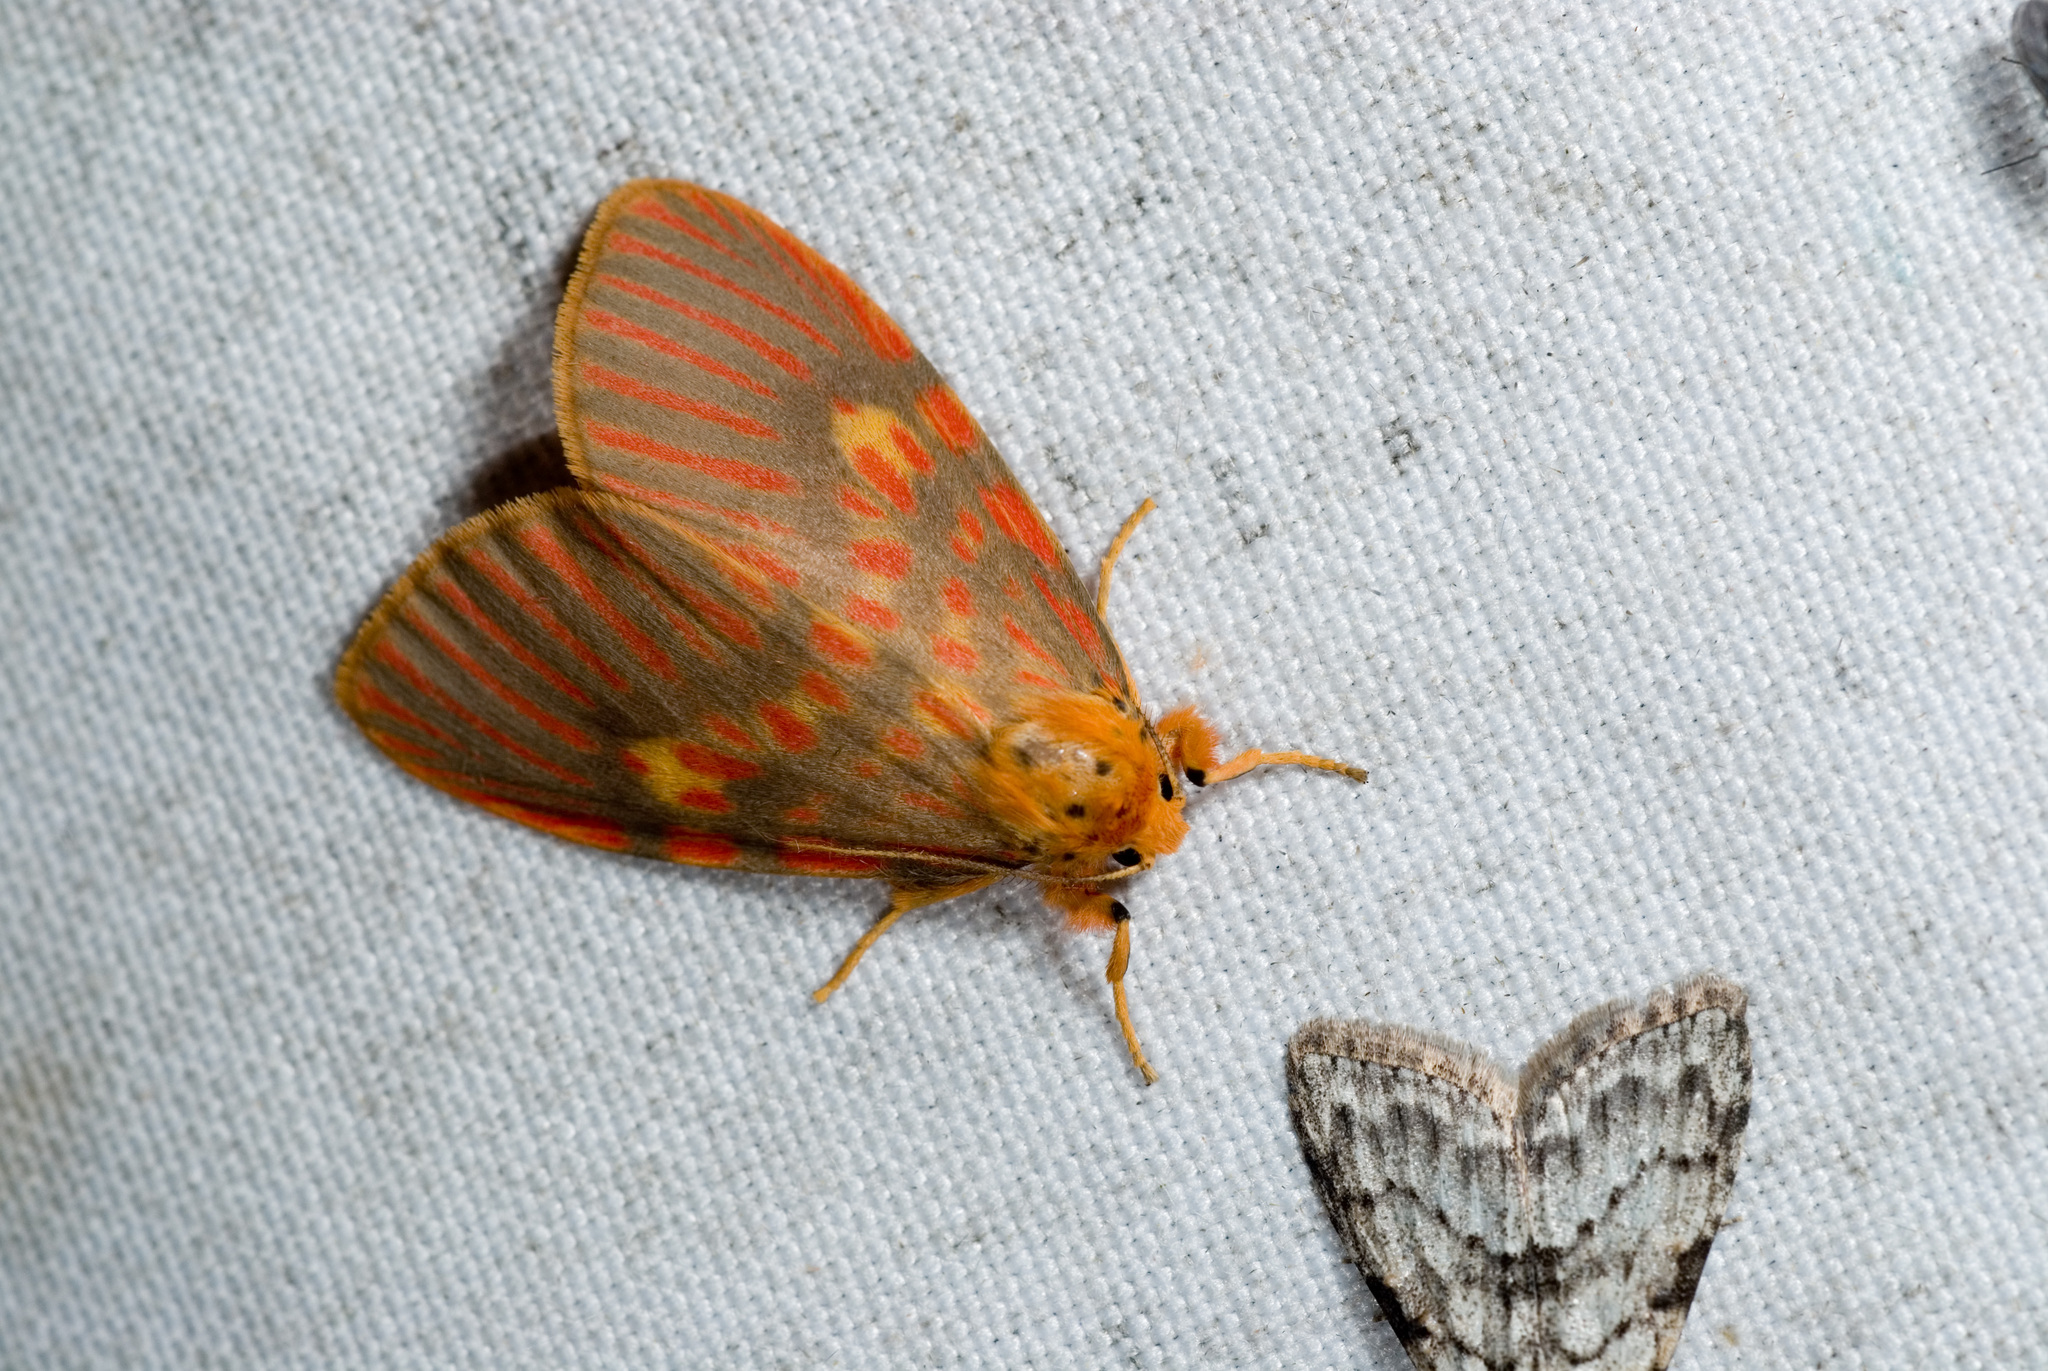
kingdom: Animalia
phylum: Arthropoda
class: Insecta
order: Lepidoptera
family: Erebidae
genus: Barsine
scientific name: Barsine callorufa
